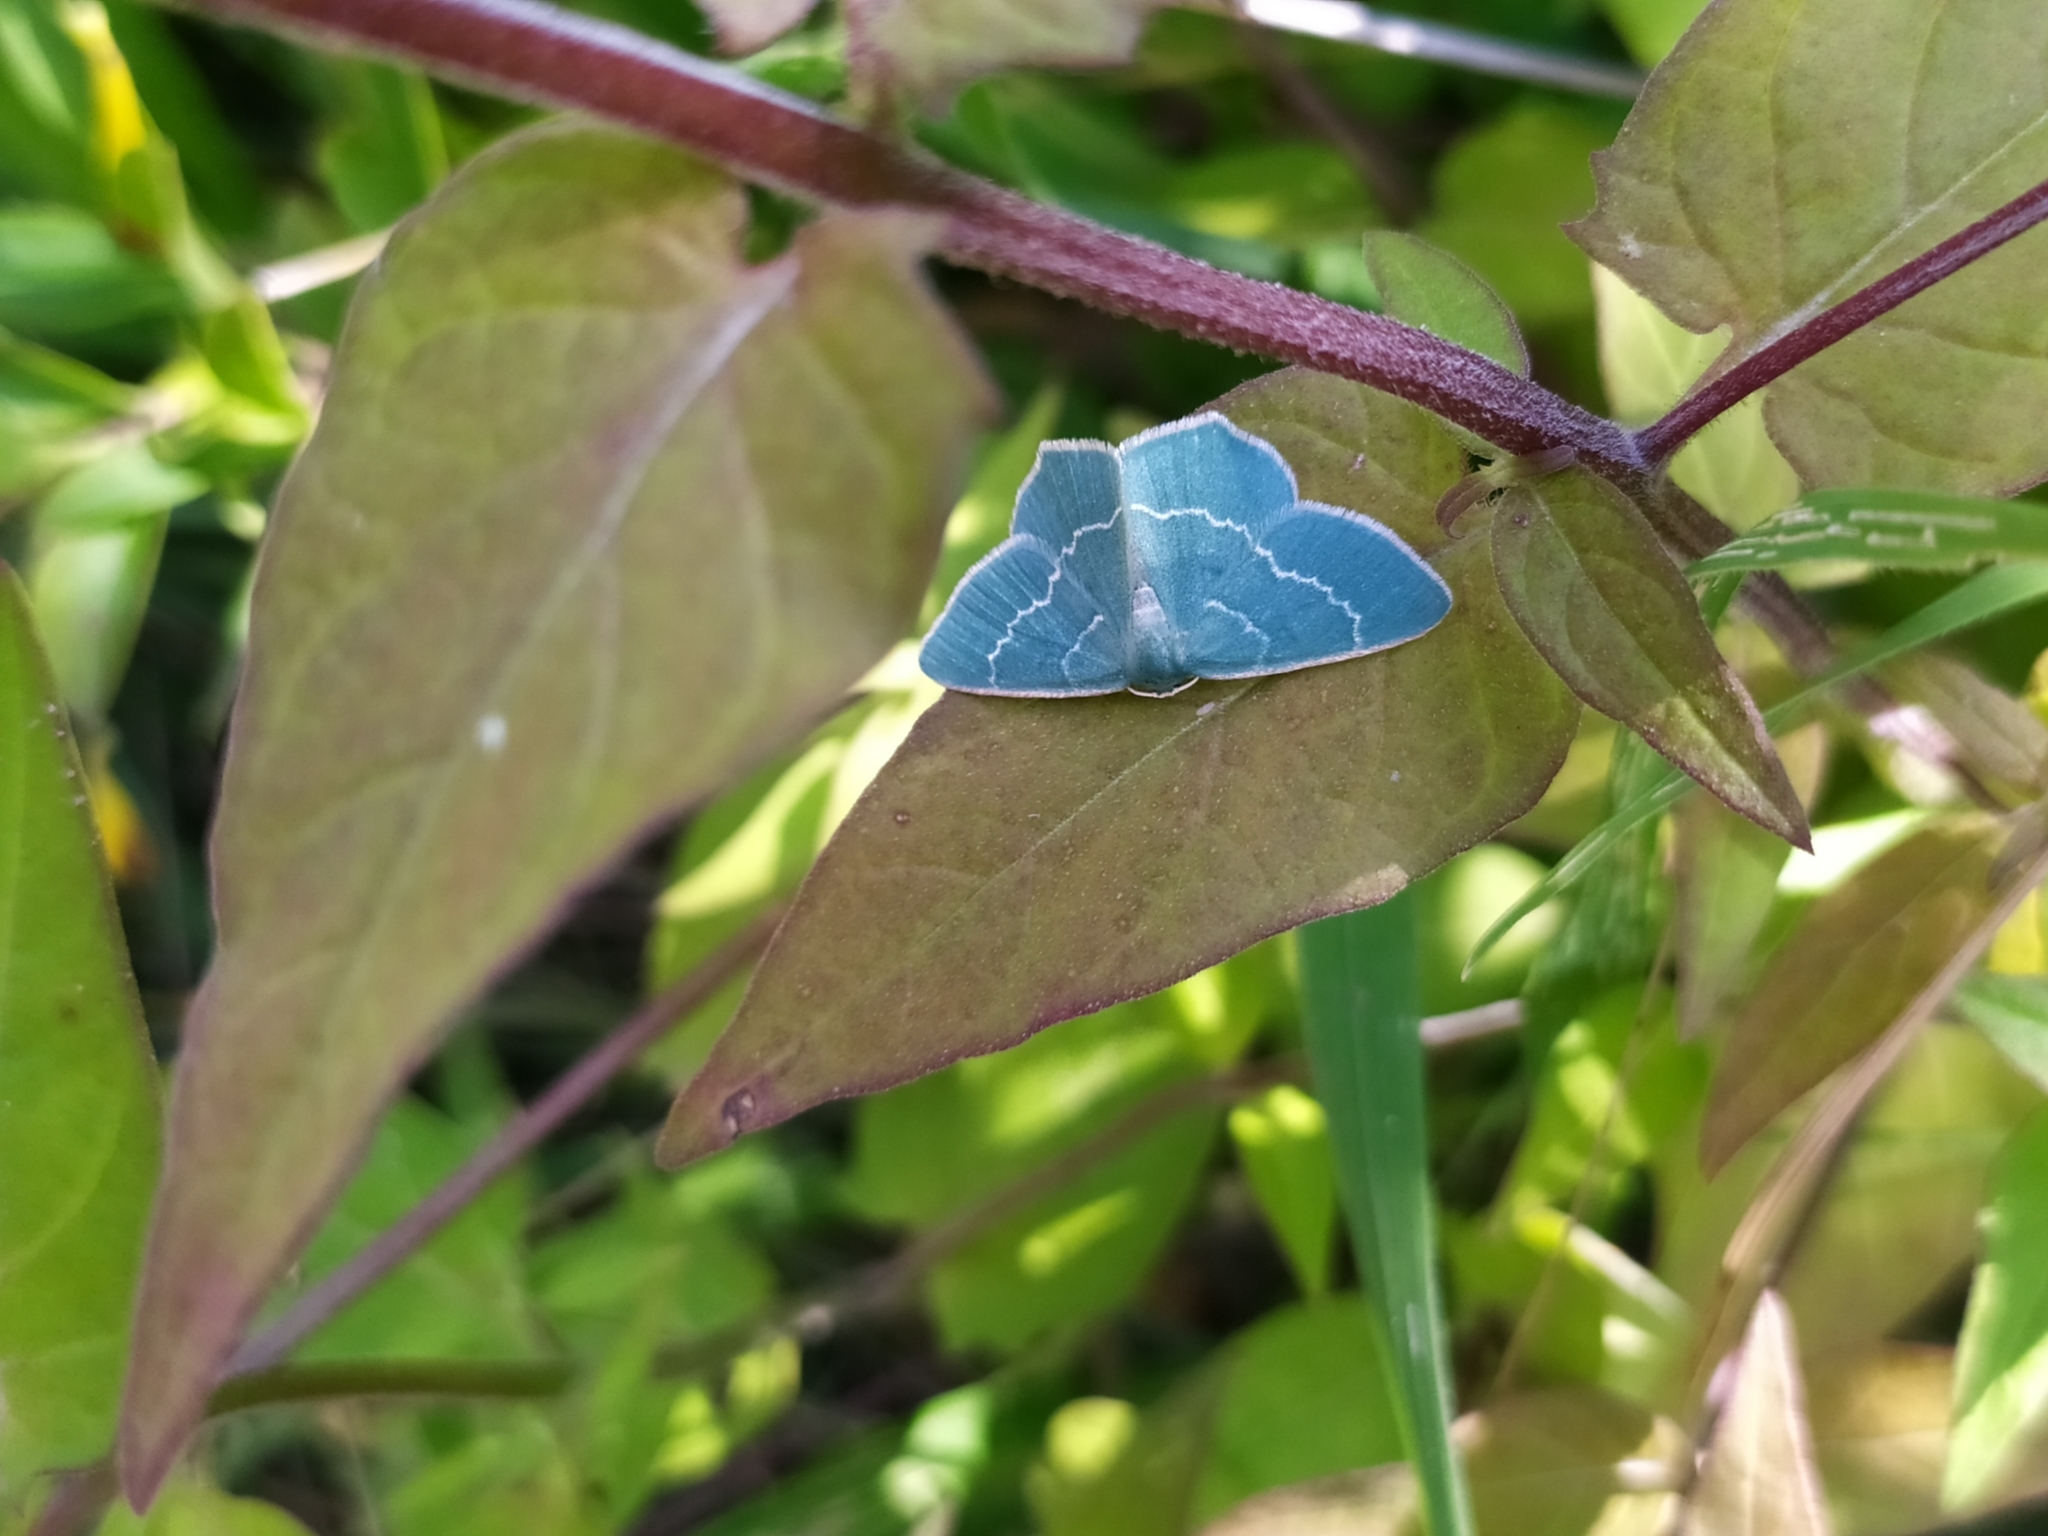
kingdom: Animalia
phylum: Arthropoda
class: Insecta
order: Lepidoptera
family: Geometridae
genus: Chlorissa
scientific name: Chlorissa viridata
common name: Small grass emerald
